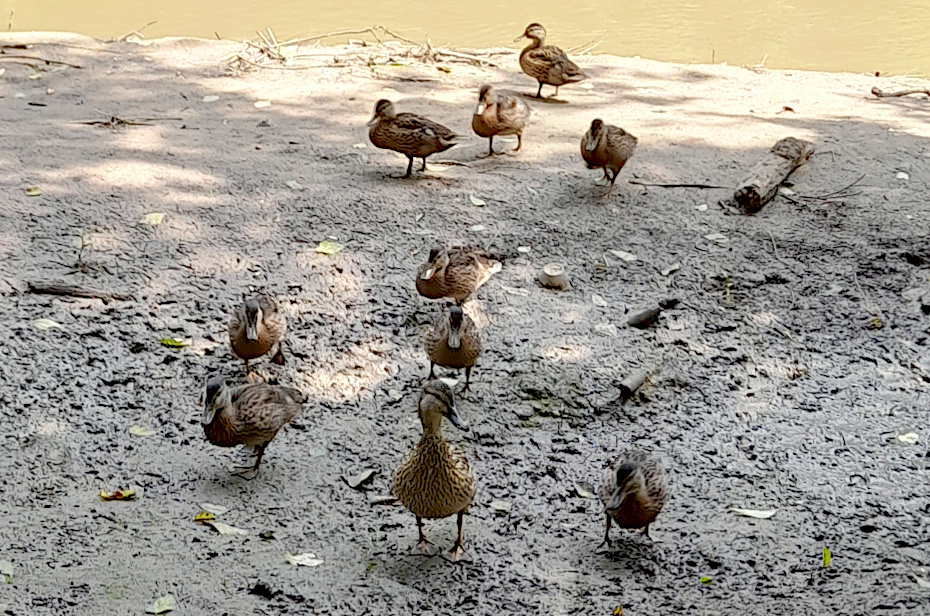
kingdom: Animalia
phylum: Chordata
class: Aves
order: Anseriformes
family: Anatidae
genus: Anas
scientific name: Anas platyrhynchos
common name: Mallard
